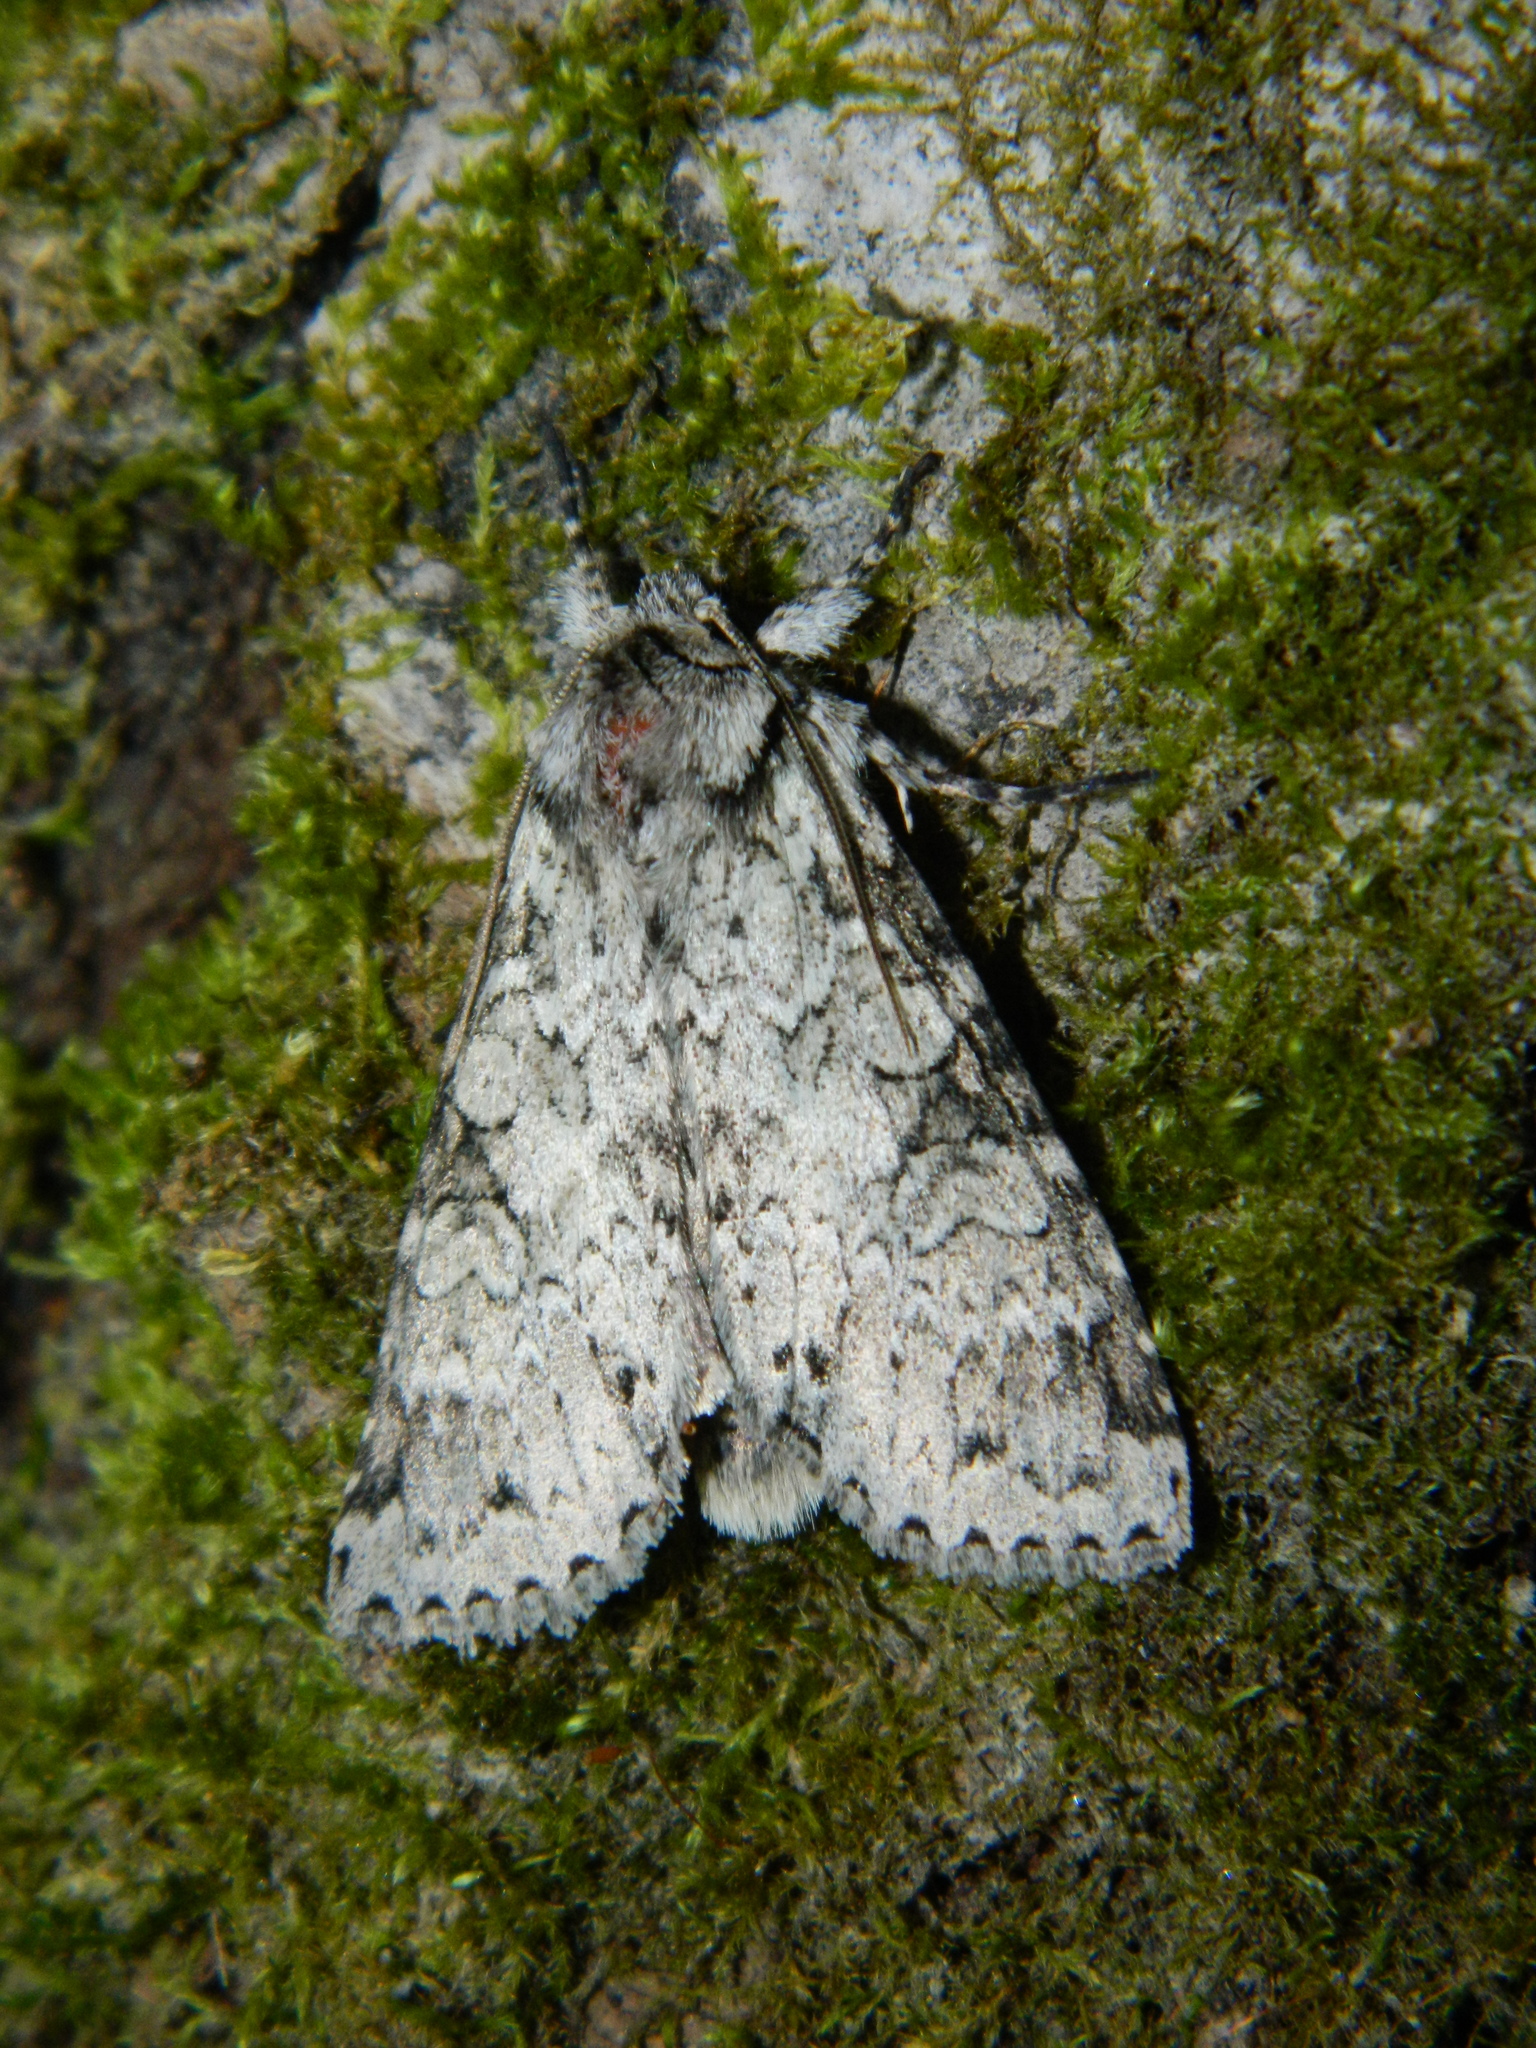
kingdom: Animalia
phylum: Arthropoda
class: Insecta
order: Lepidoptera
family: Noctuidae
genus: Polia
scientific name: Polia nimbosa
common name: Stormy arches
